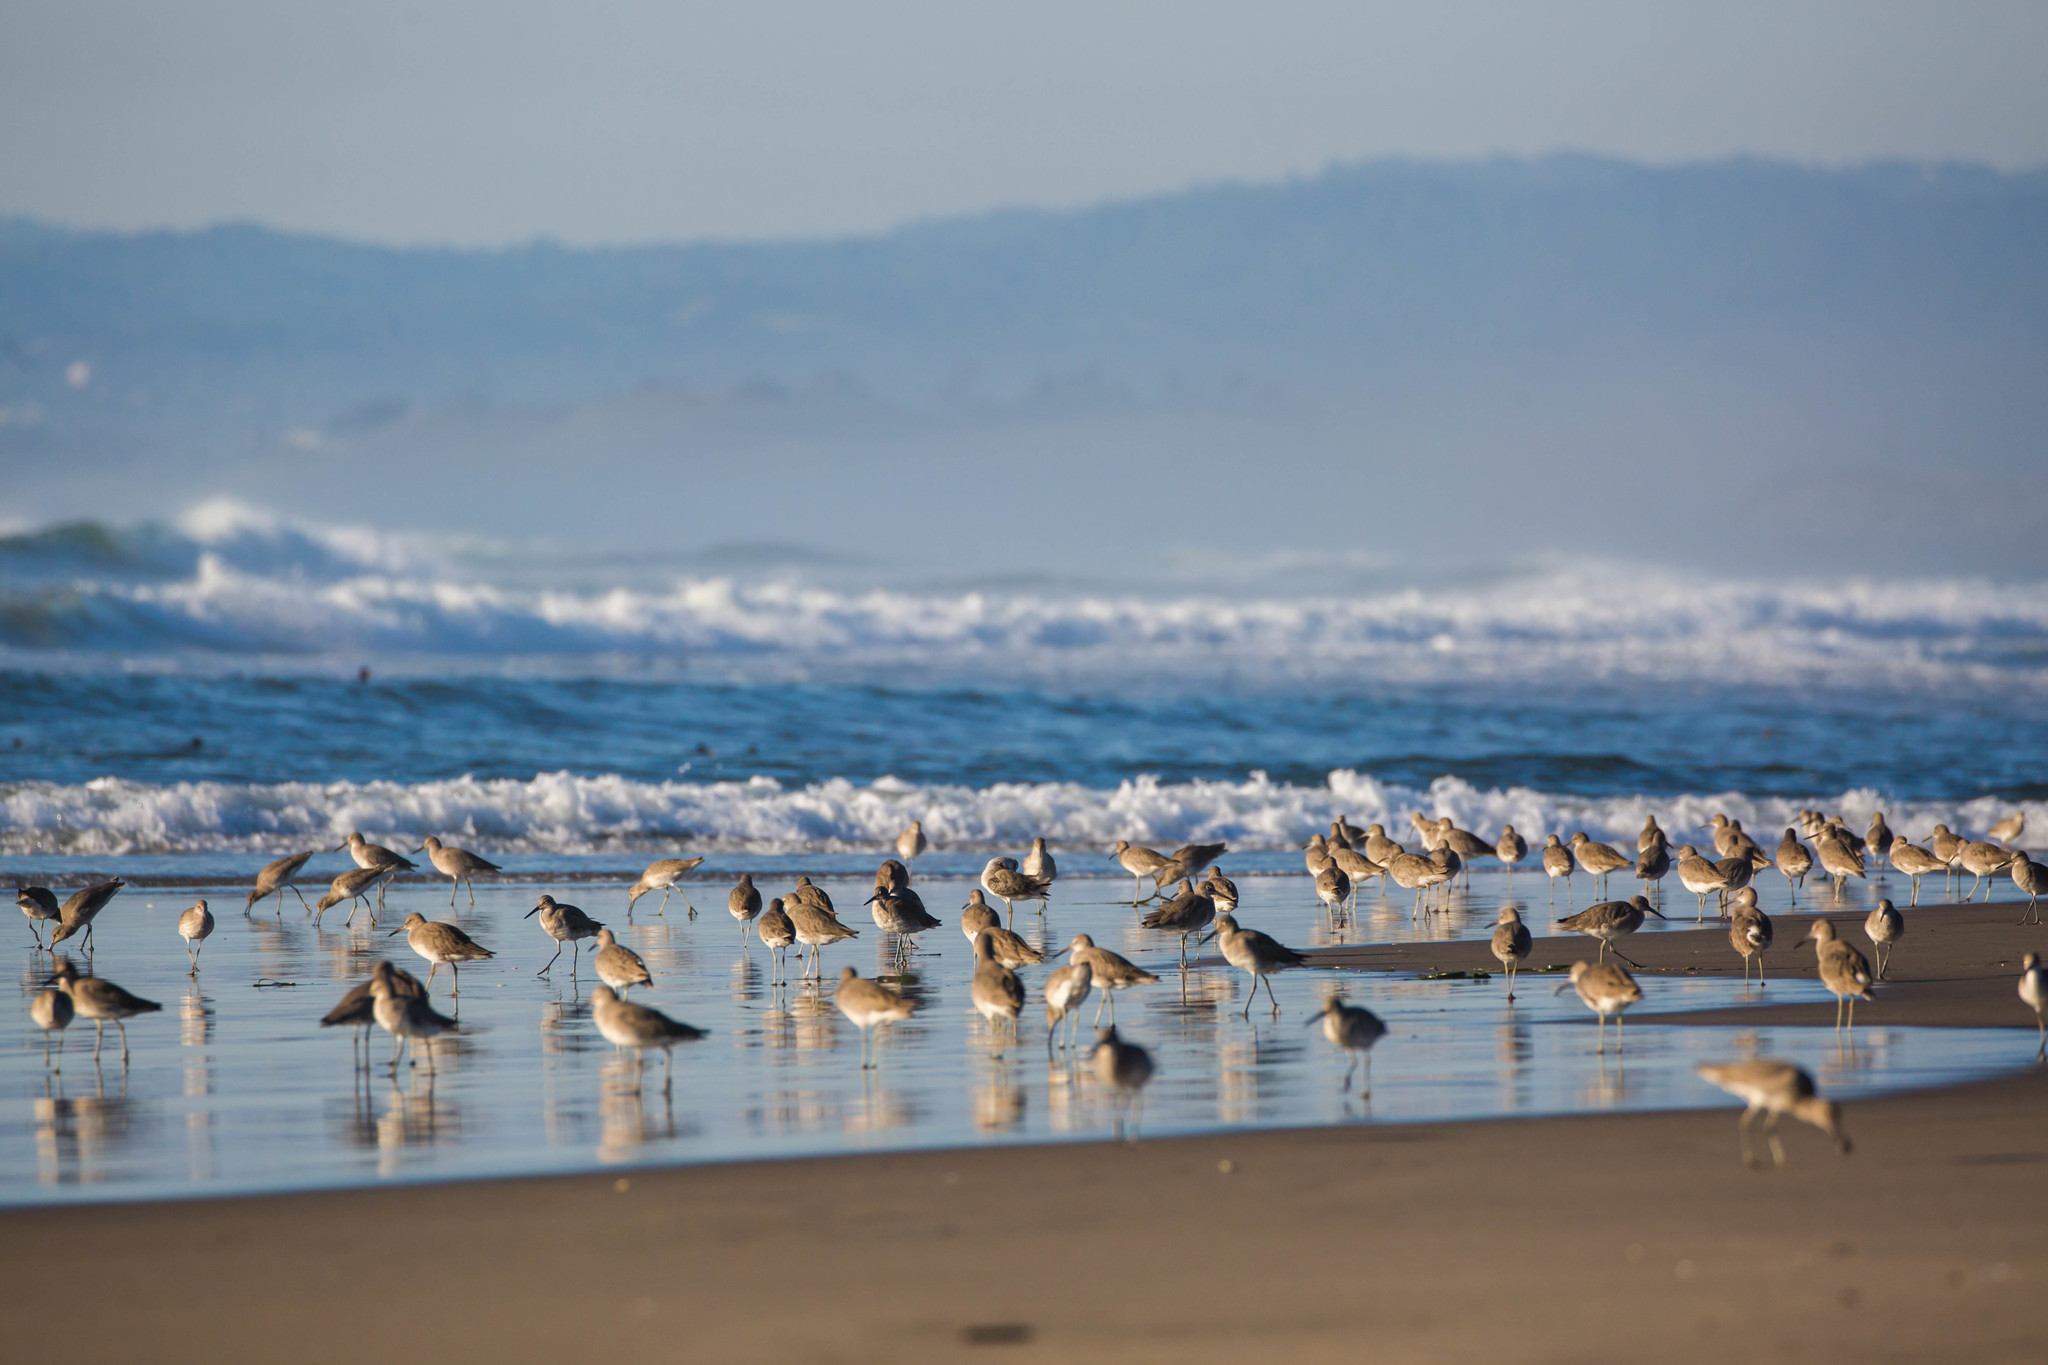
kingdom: Animalia
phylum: Chordata
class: Aves
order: Charadriiformes
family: Scolopacidae
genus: Tringa
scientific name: Tringa semipalmata
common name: Willet
